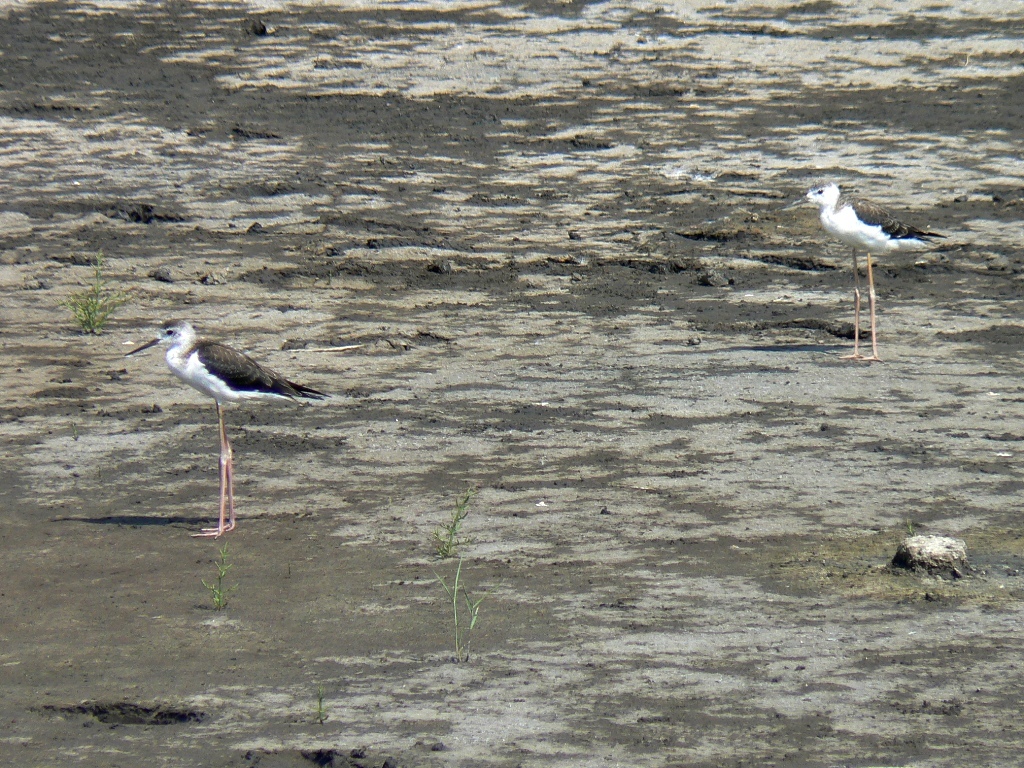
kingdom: Animalia
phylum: Chordata
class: Aves
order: Charadriiformes
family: Recurvirostridae
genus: Himantopus
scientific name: Himantopus himantopus
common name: Black-winged stilt
